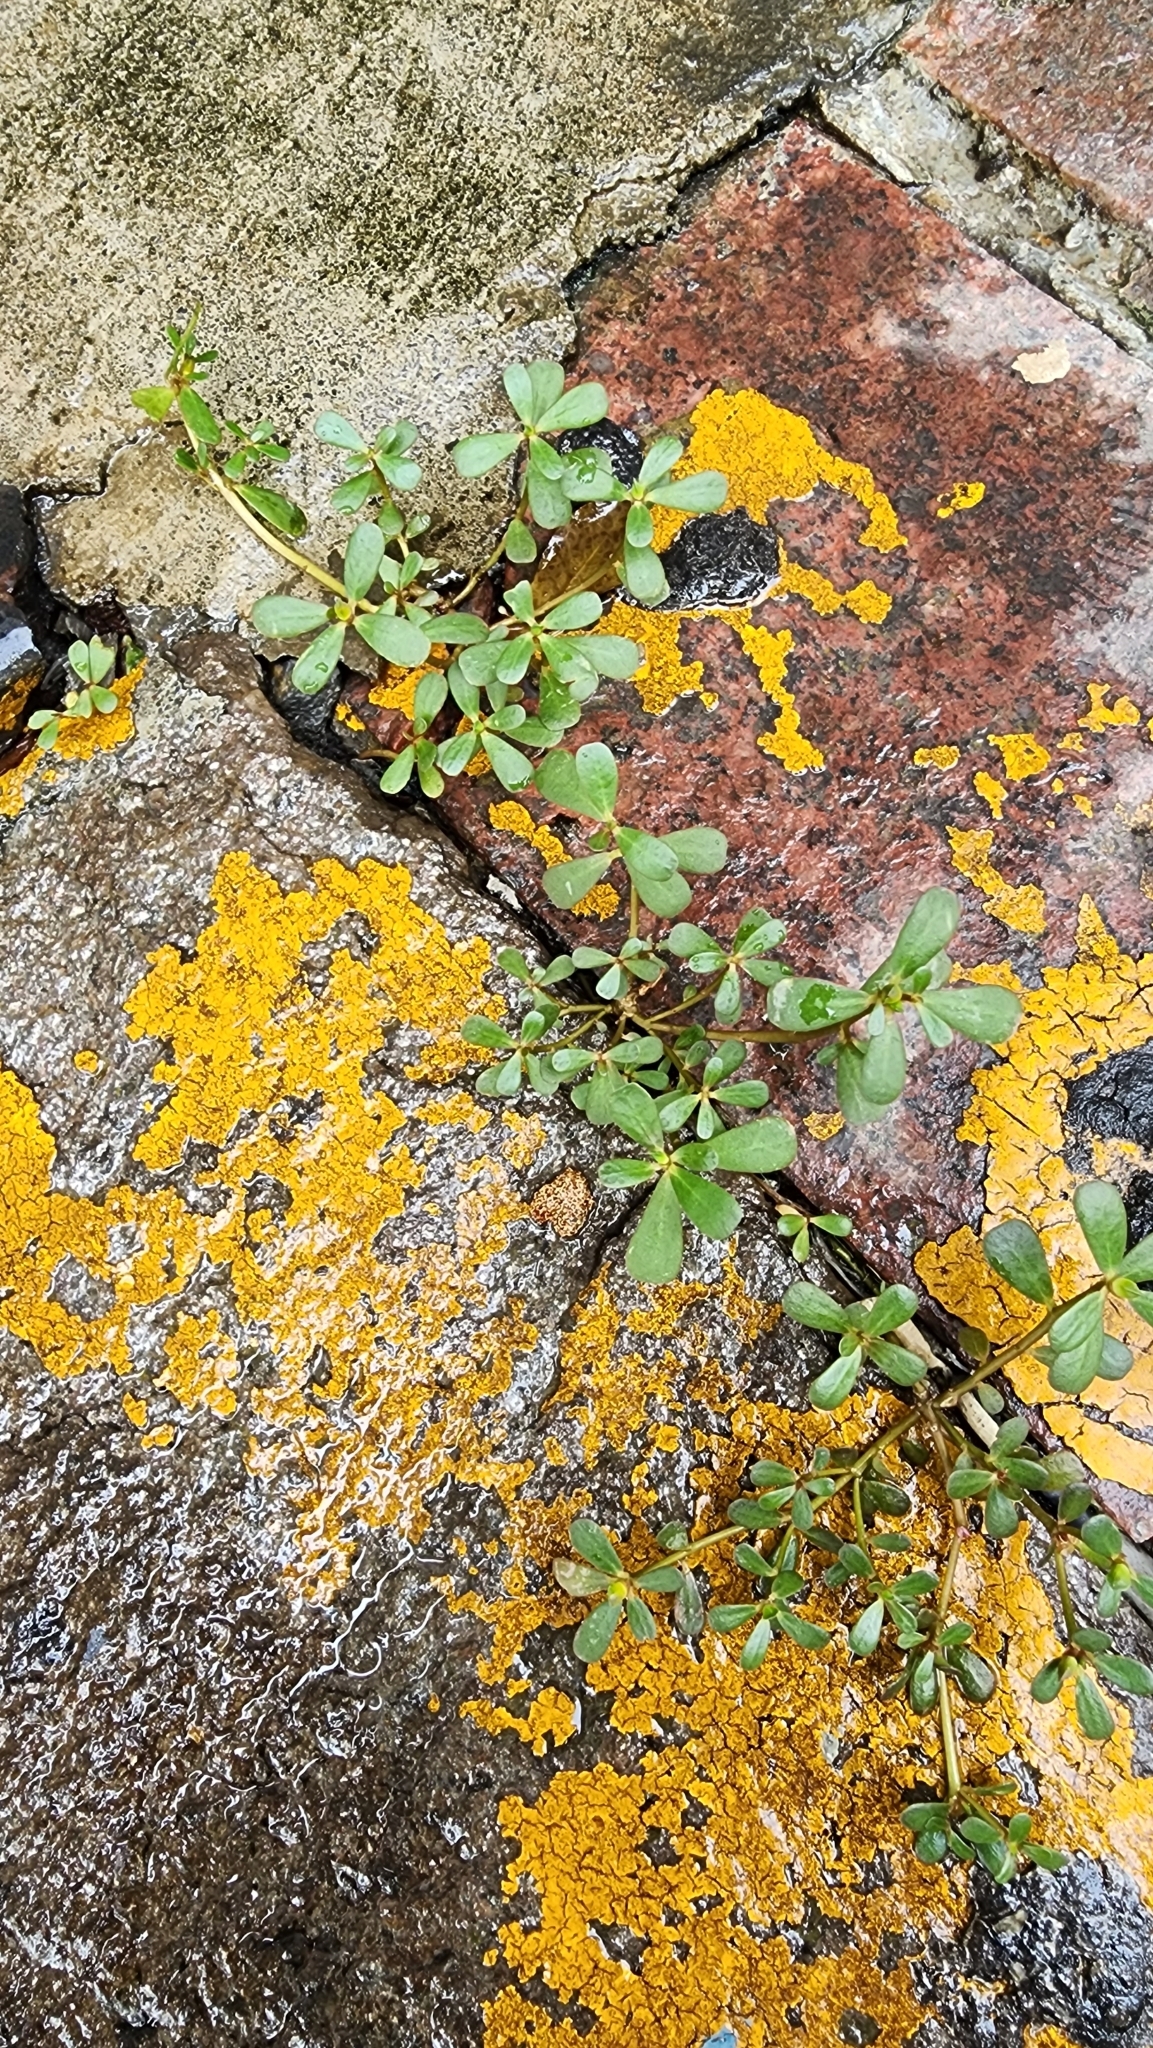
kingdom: Plantae
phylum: Tracheophyta
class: Magnoliopsida
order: Caryophyllales
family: Portulacaceae
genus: Portulaca
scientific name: Portulaca oleracea
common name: Common purslane
